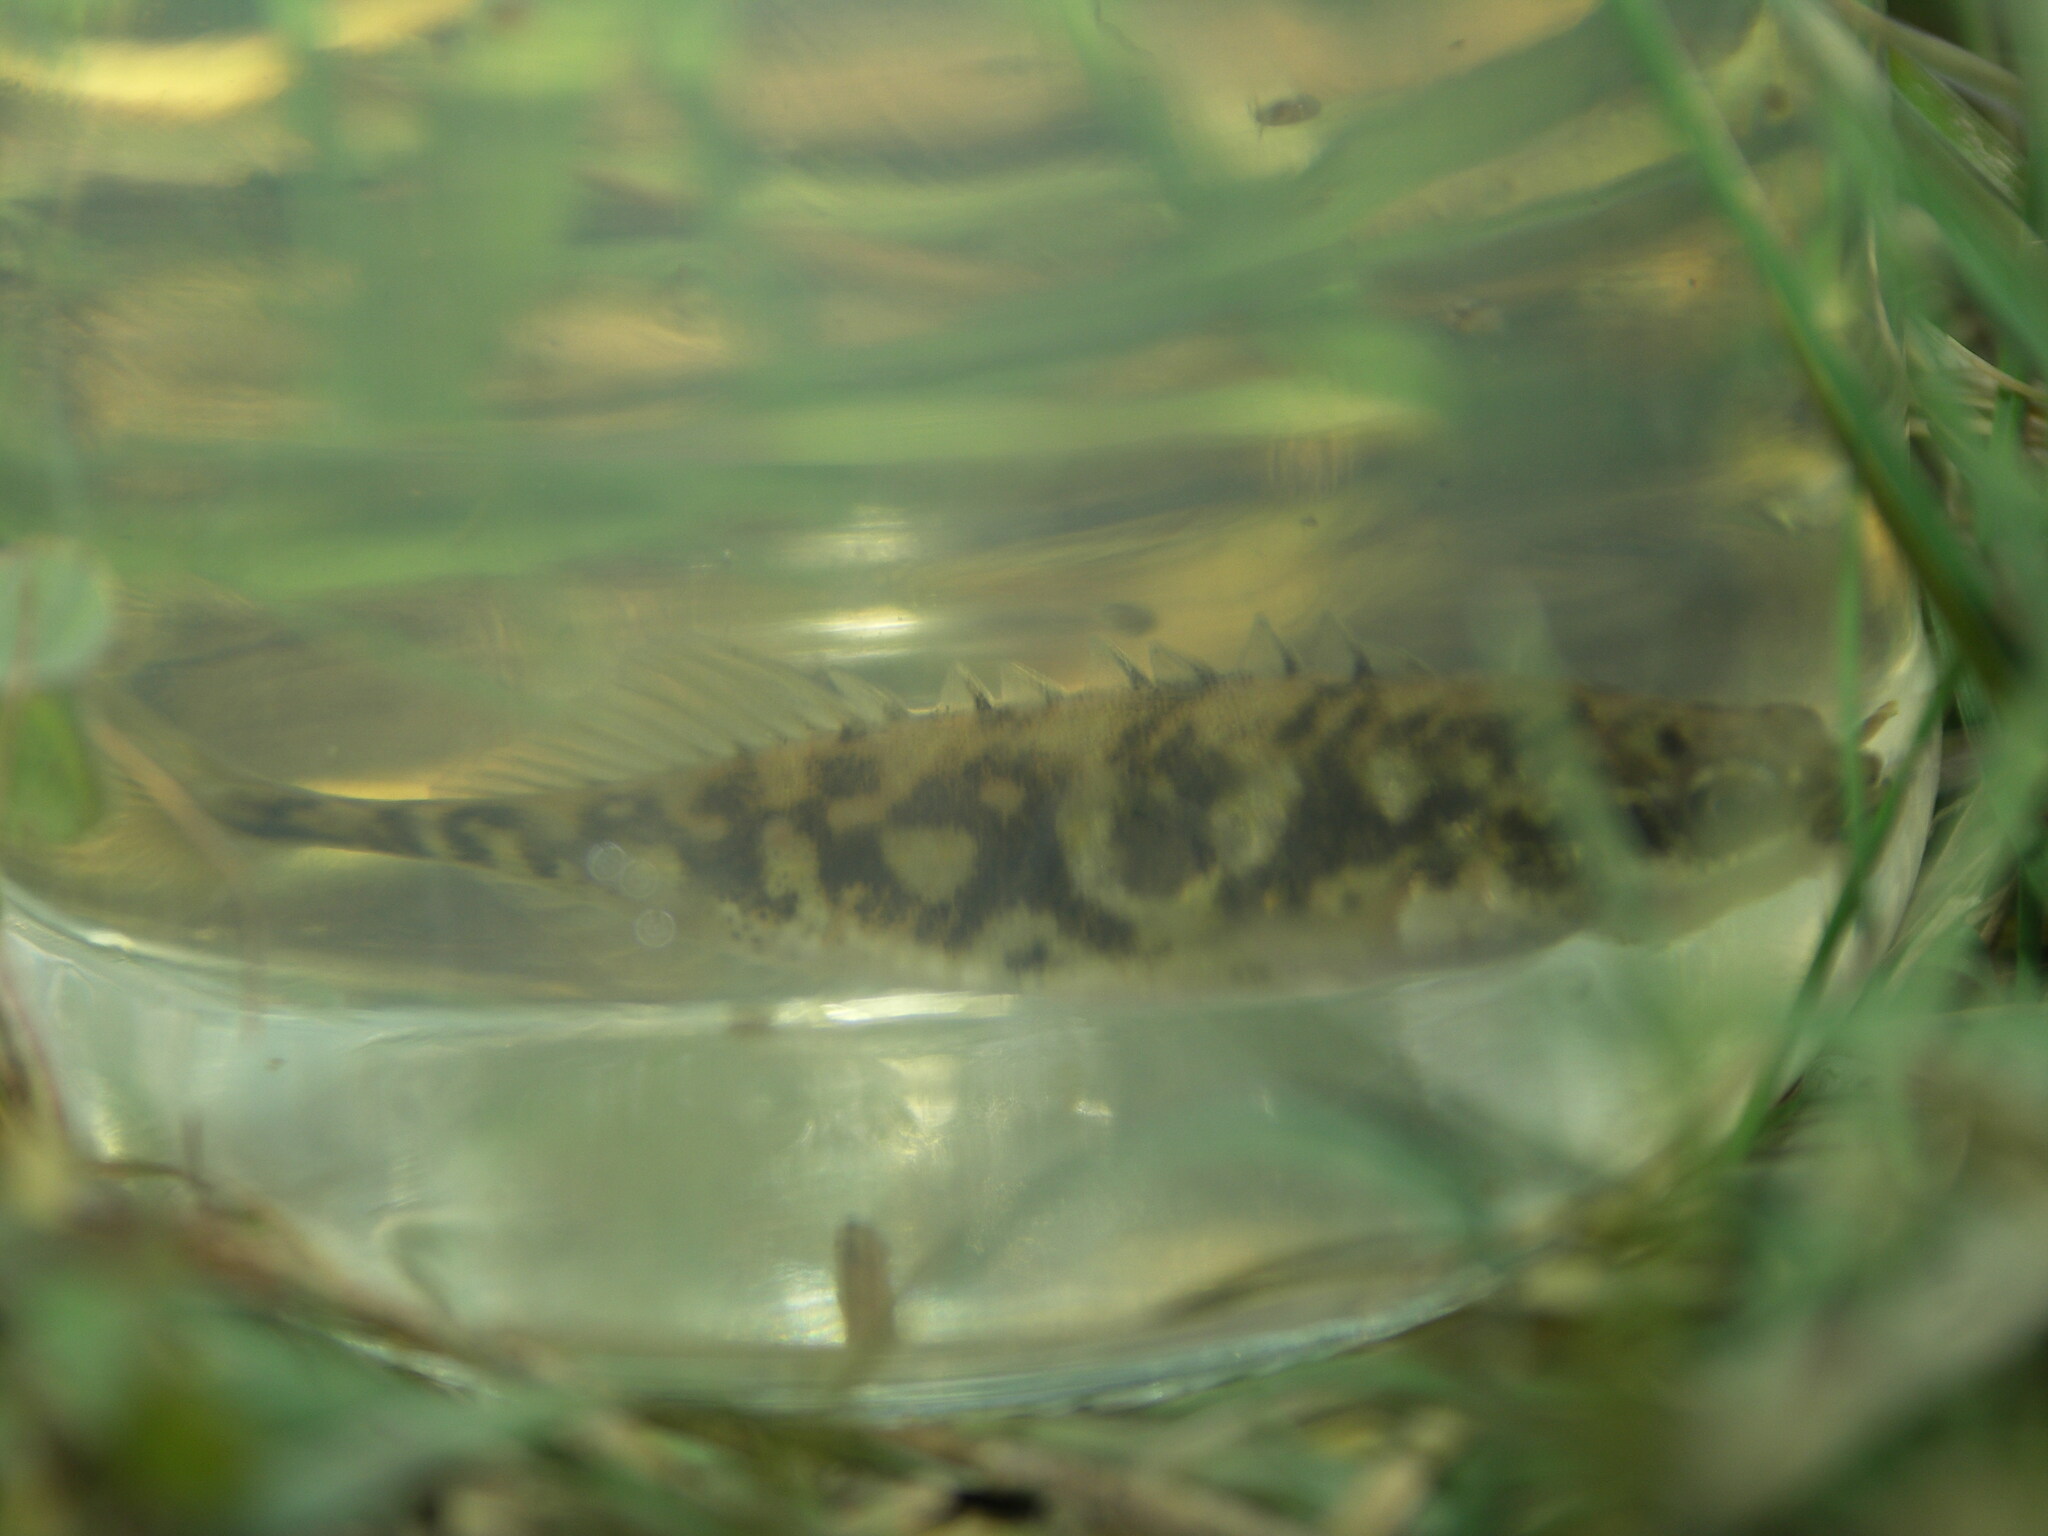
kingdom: Animalia
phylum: Chordata
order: Gasterosteiformes
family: Gasterosteidae
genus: Pungitius
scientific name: Pungitius laevis
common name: Smoothtail ninespine stickleback
